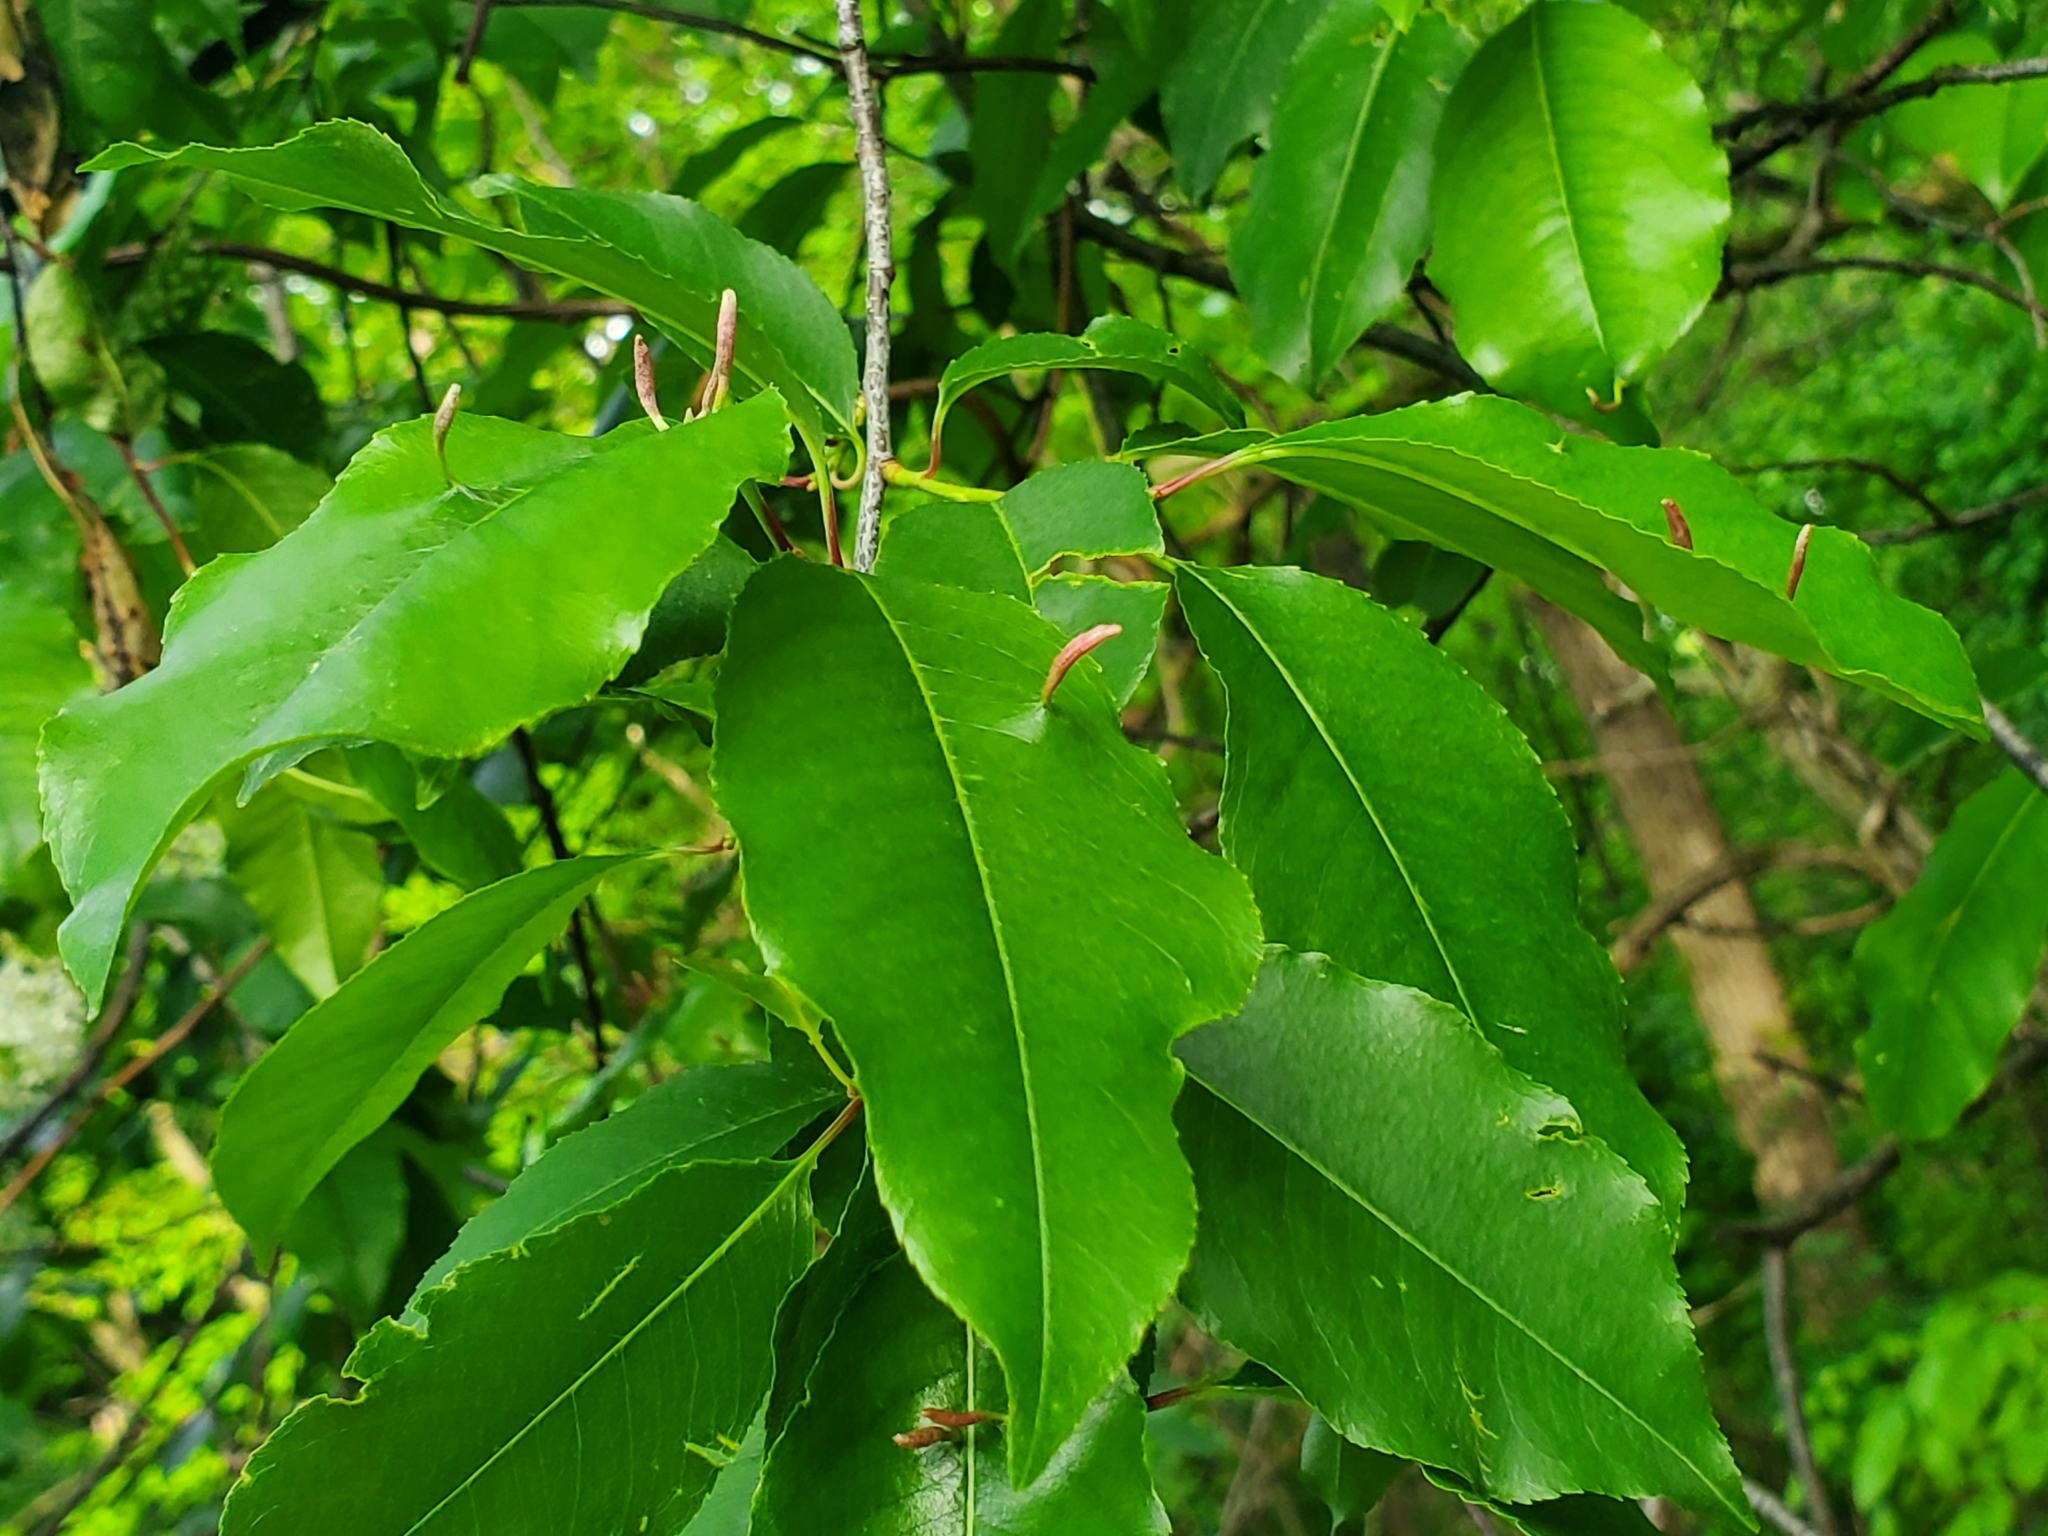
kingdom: Animalia
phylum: Arthropoda
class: Arachnida
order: Trombidiformes
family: Eriophyidae
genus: Eriophyes
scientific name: Eriophyes
